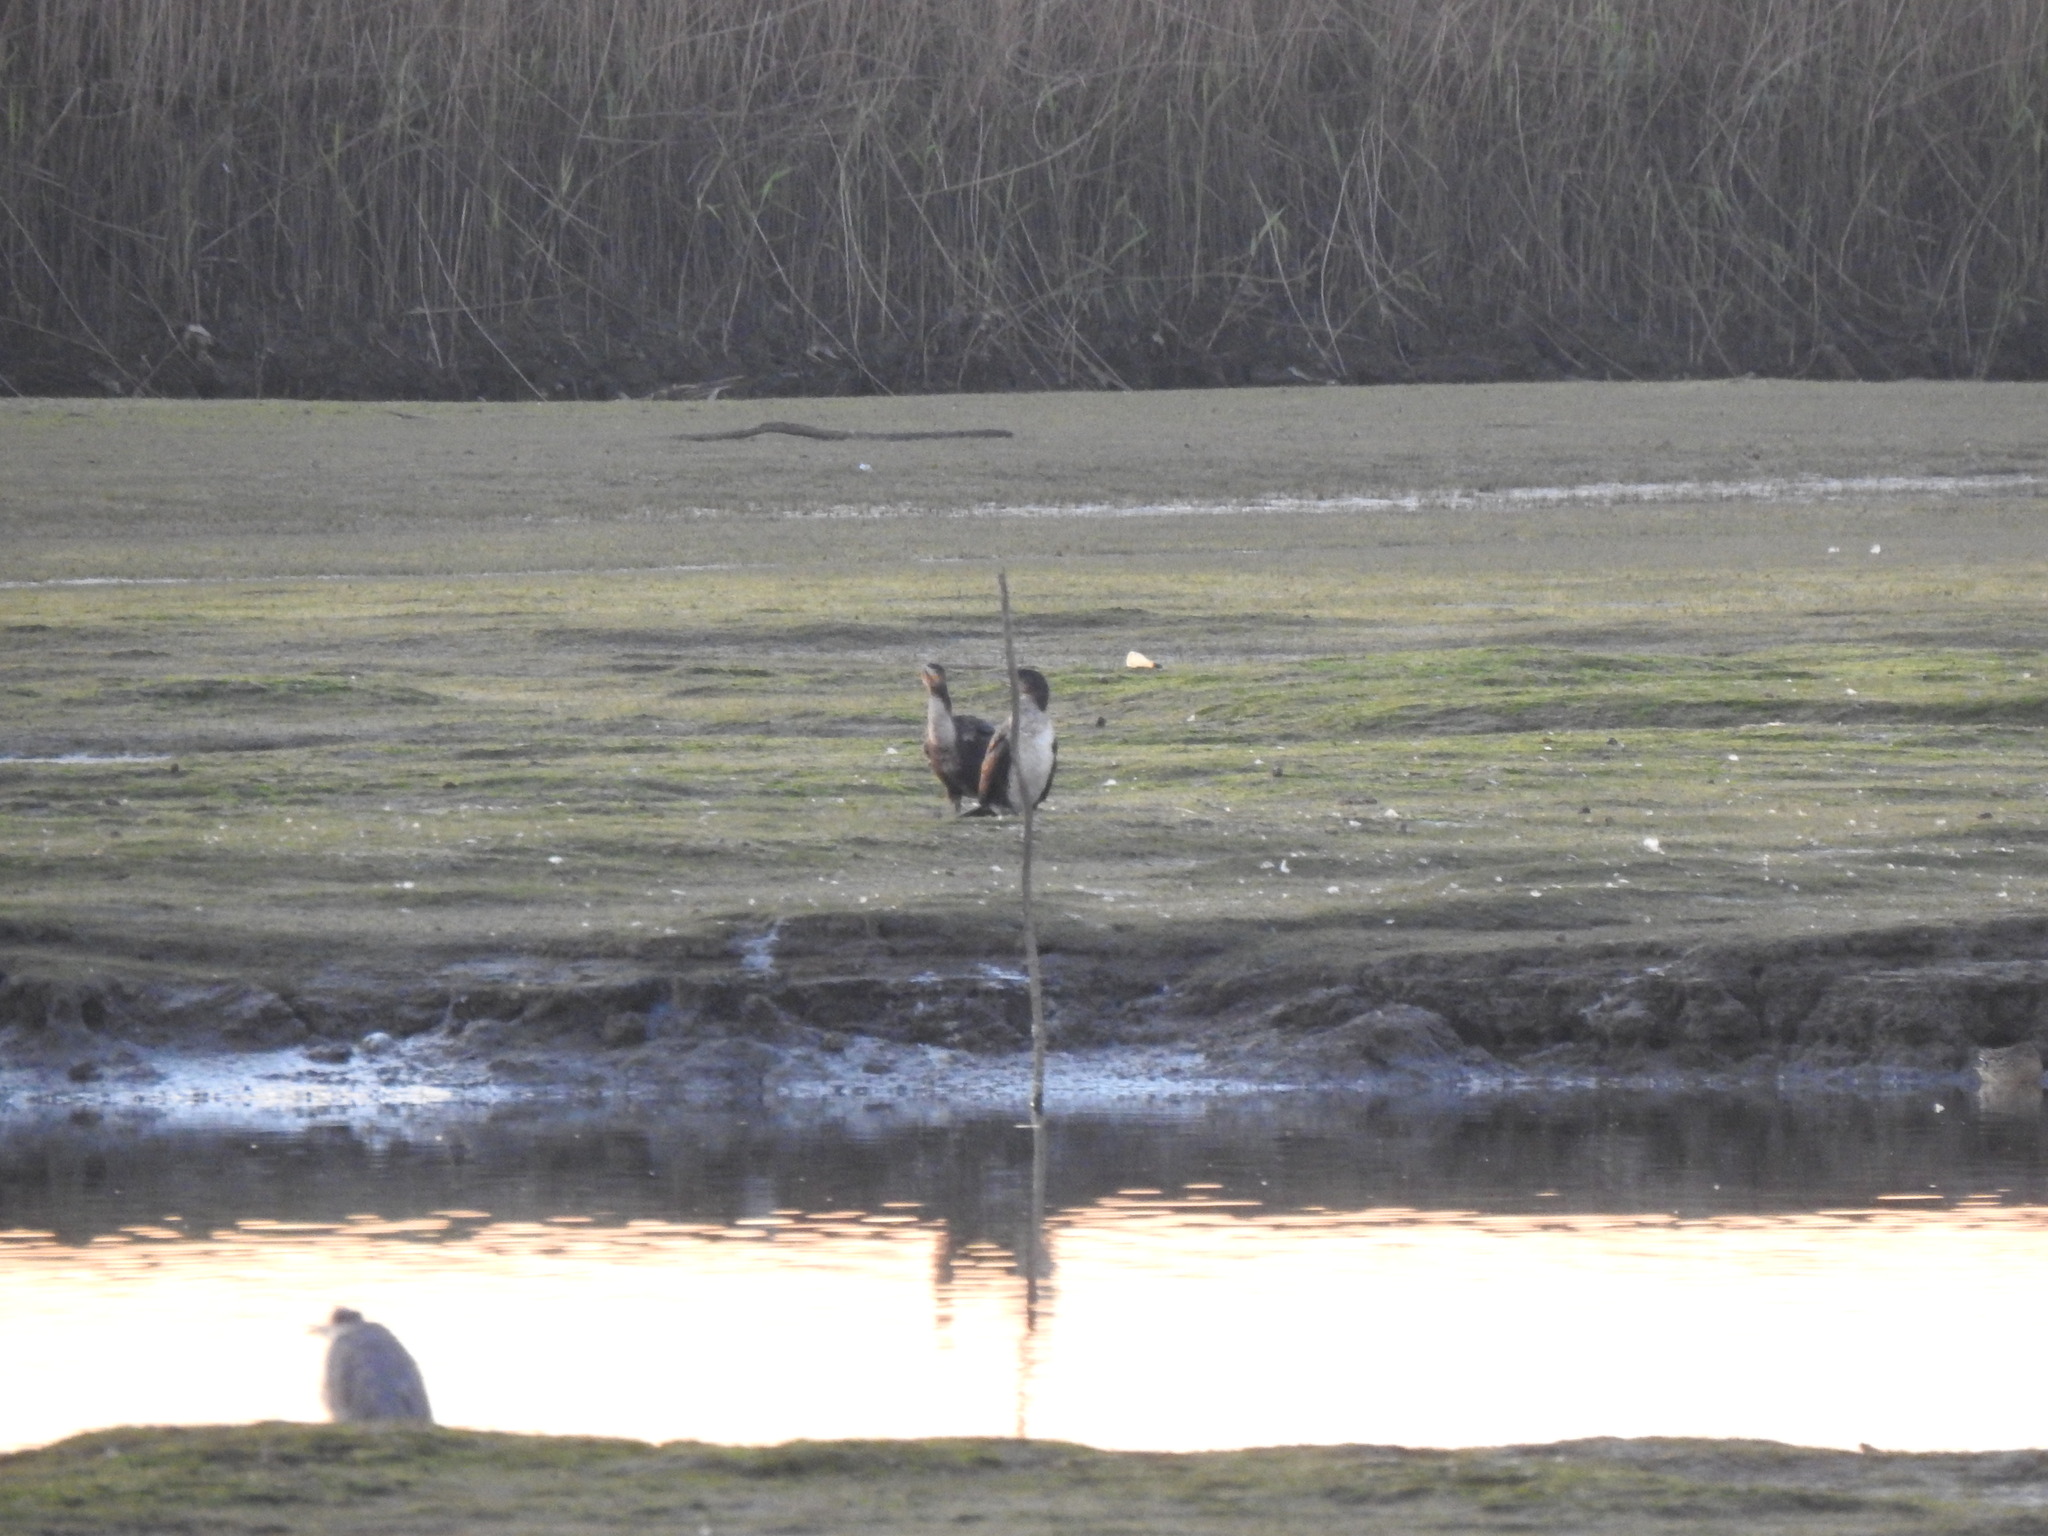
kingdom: Animalia
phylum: Chordata
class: Aves
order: Suliformes
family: Phalacrocoracidae
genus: Phalacrocorax
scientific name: Phalacrocorax carbo
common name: Great cormorant
